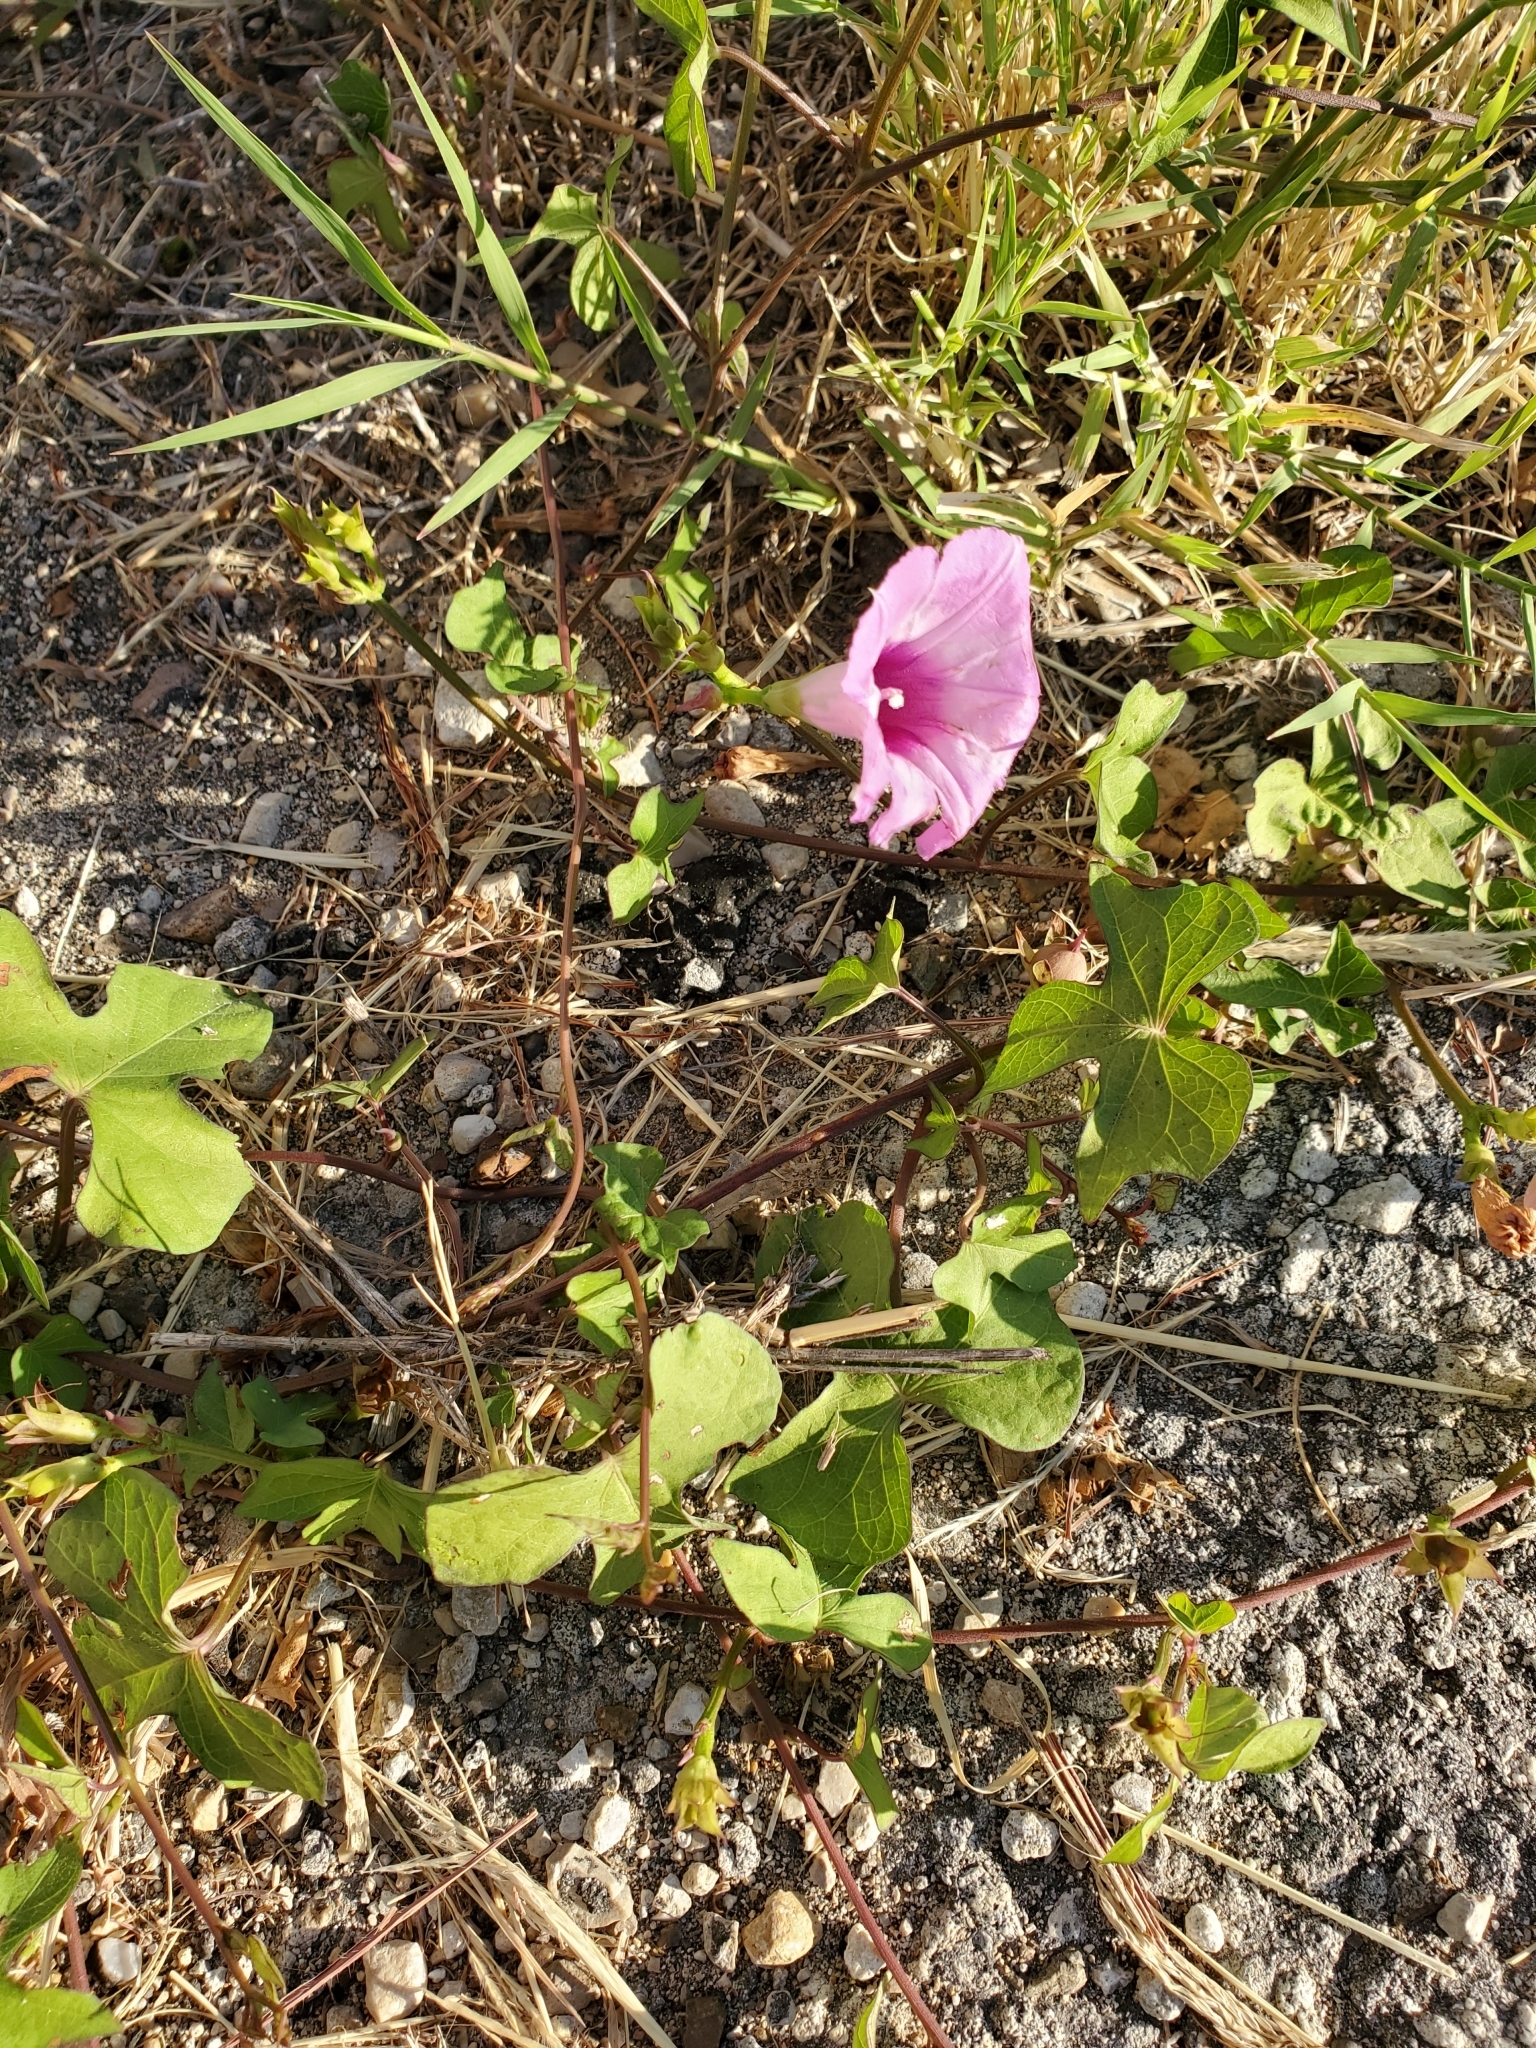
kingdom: Plantae
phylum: Tracheophyta
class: Magnoliopsida
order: Solanales
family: Convolvulaceae
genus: Ipomoea
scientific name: Ipomoea cordatotriloba
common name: Cotton morning glory
